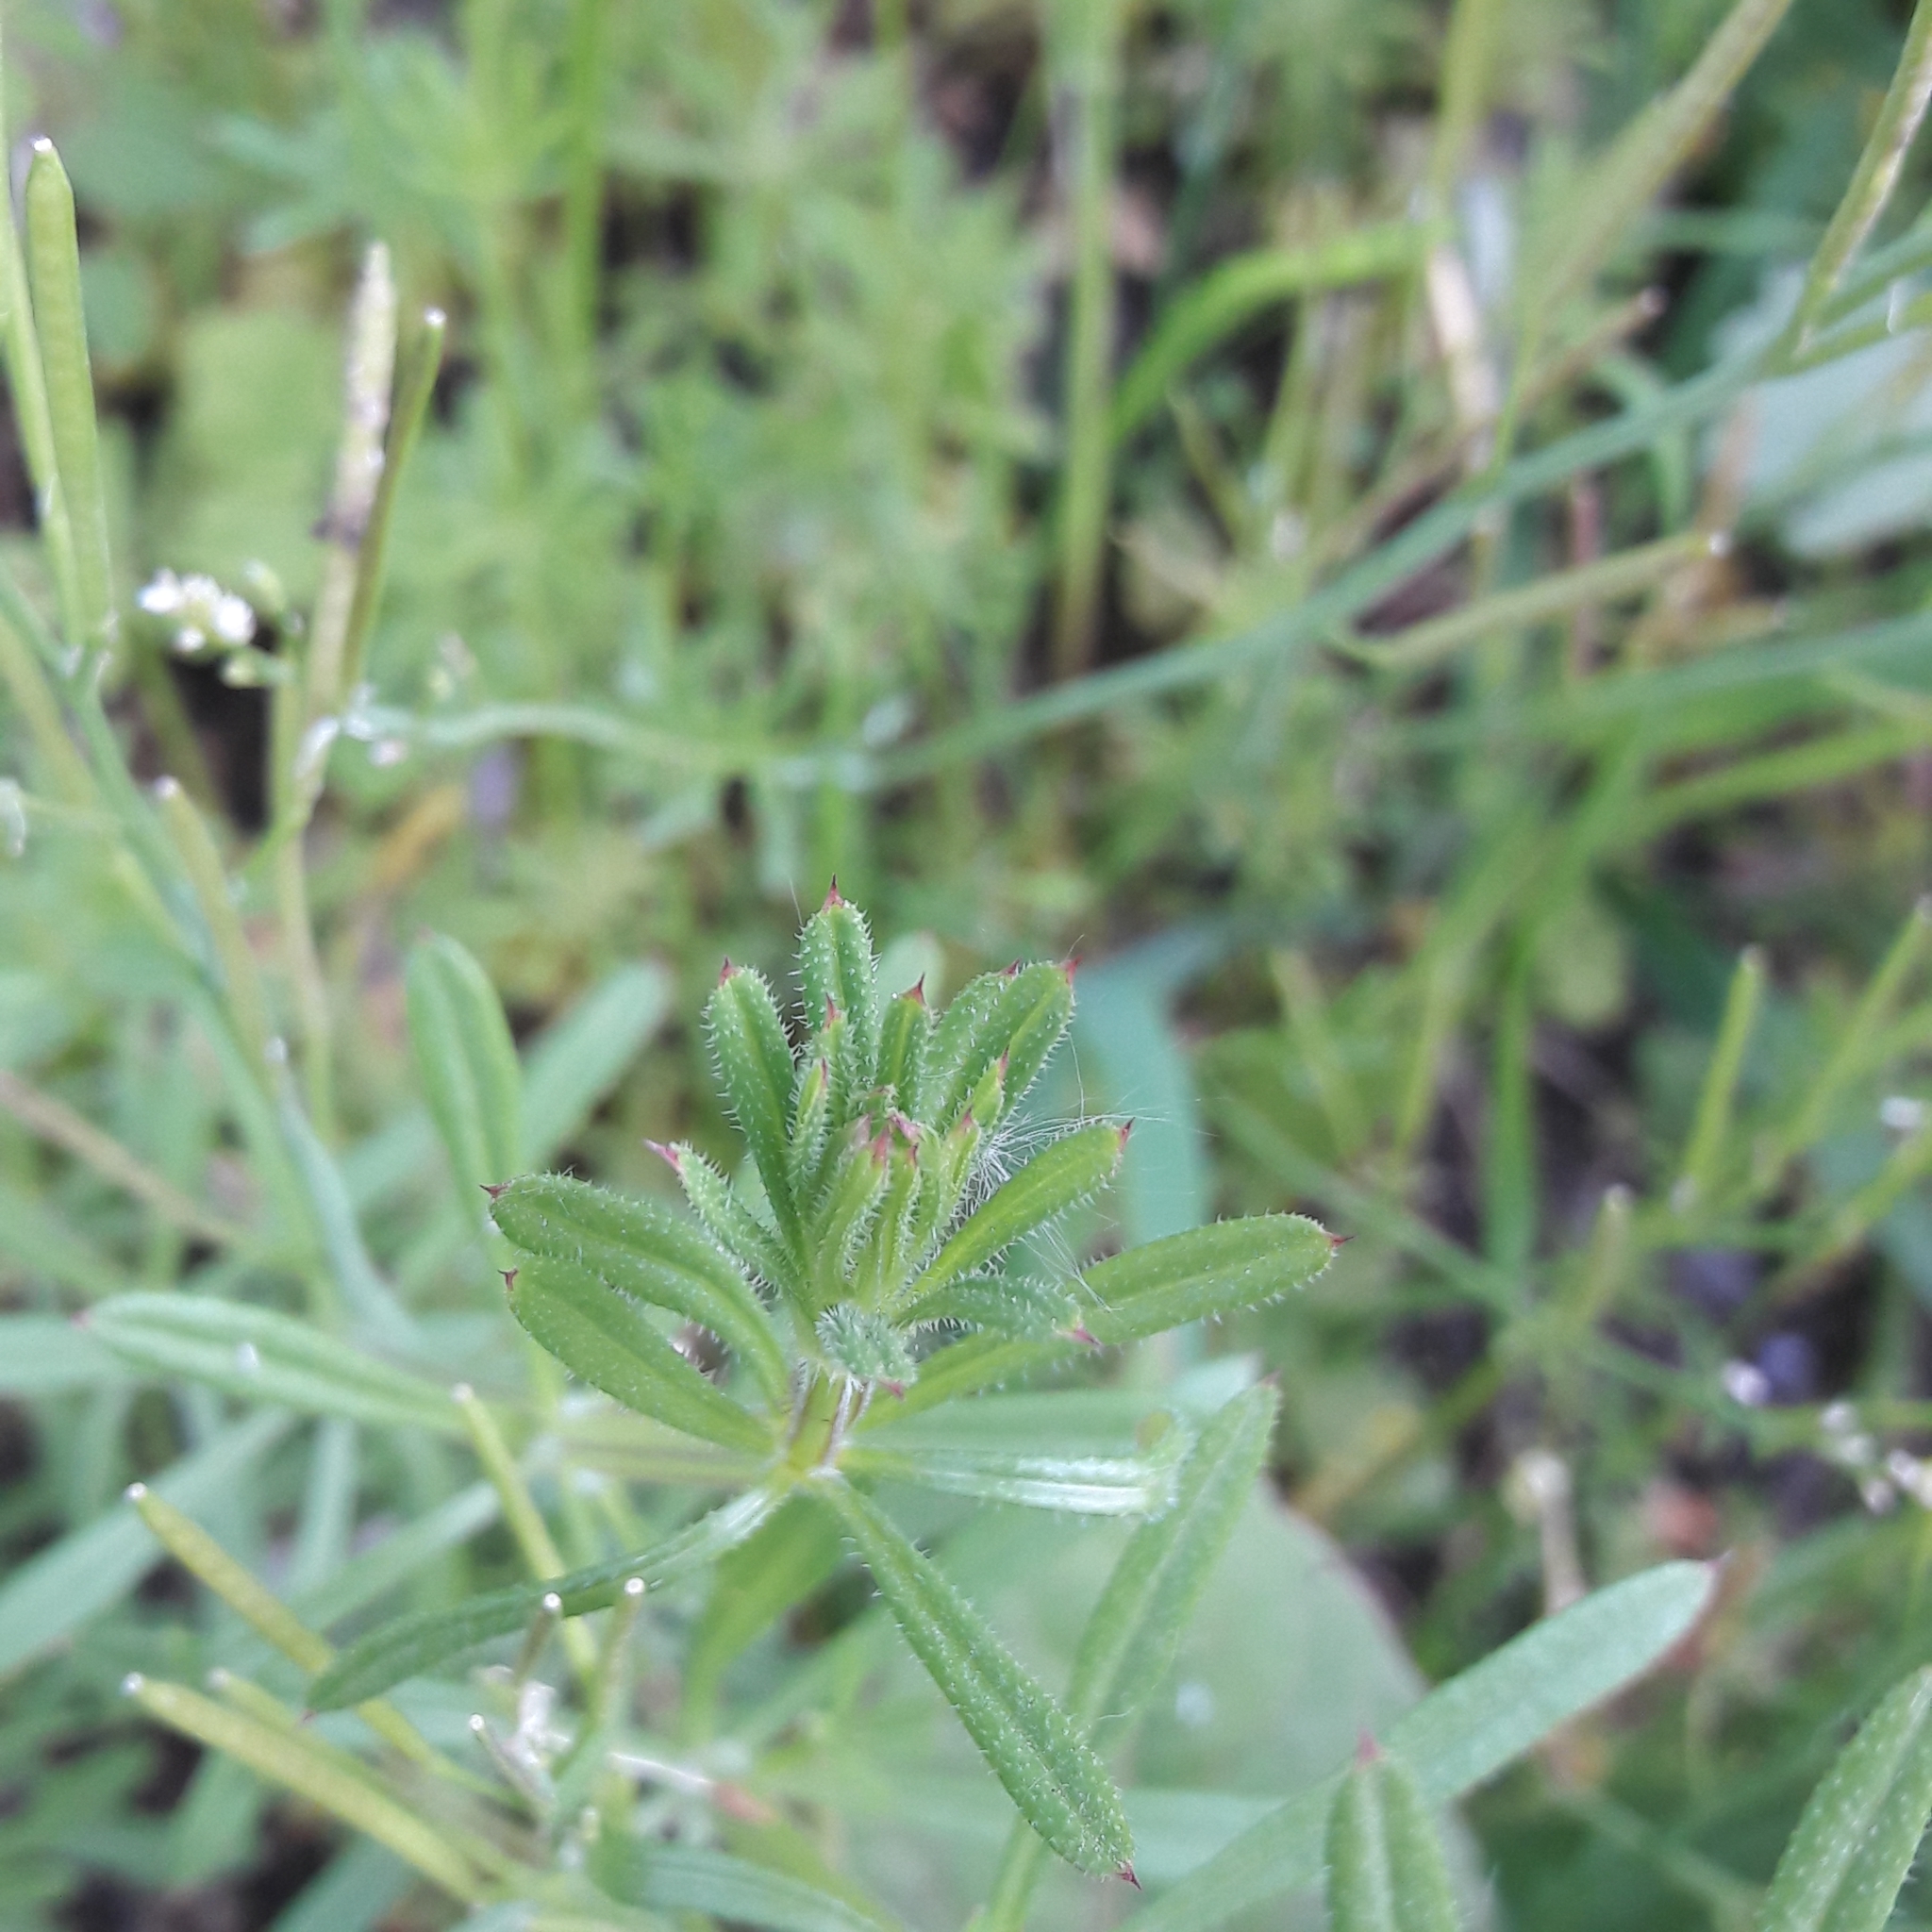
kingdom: Plantae
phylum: Tracheophyta
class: Magnoliopsida
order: Gentianales
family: Rubiaceae
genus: Galium
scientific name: Galium aparine
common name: Cleavers
